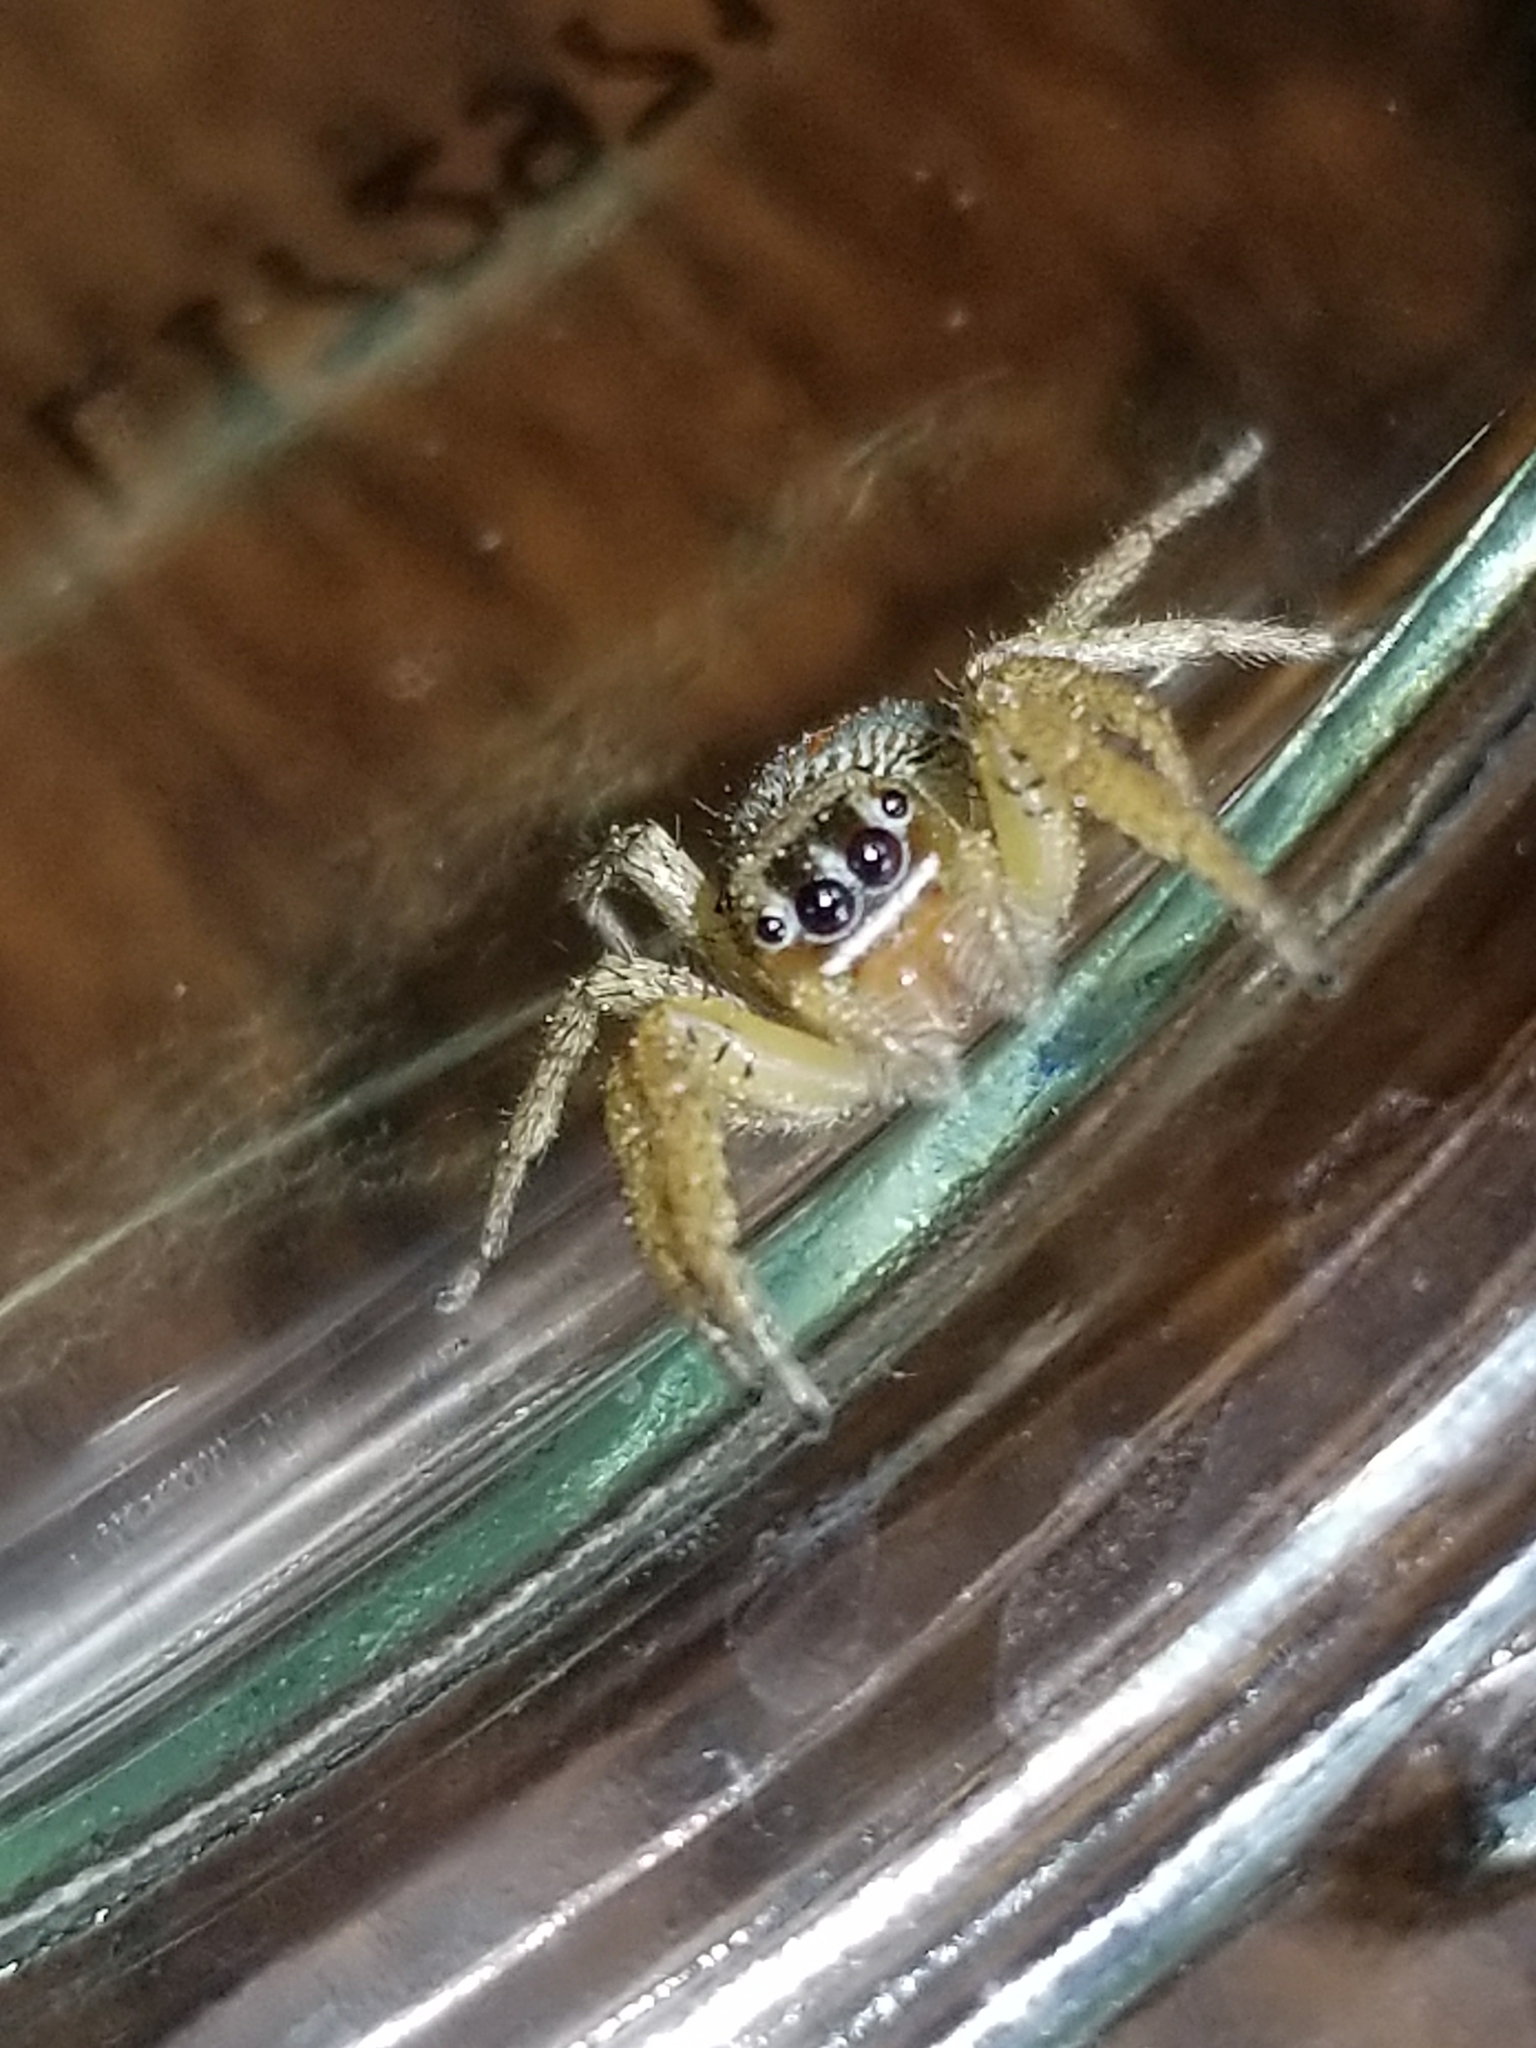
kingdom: Animalia
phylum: Arthropoda
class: Arachnida
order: Araneae
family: Salticidae
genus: Paramaevia
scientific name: Paramaevia poultoni
